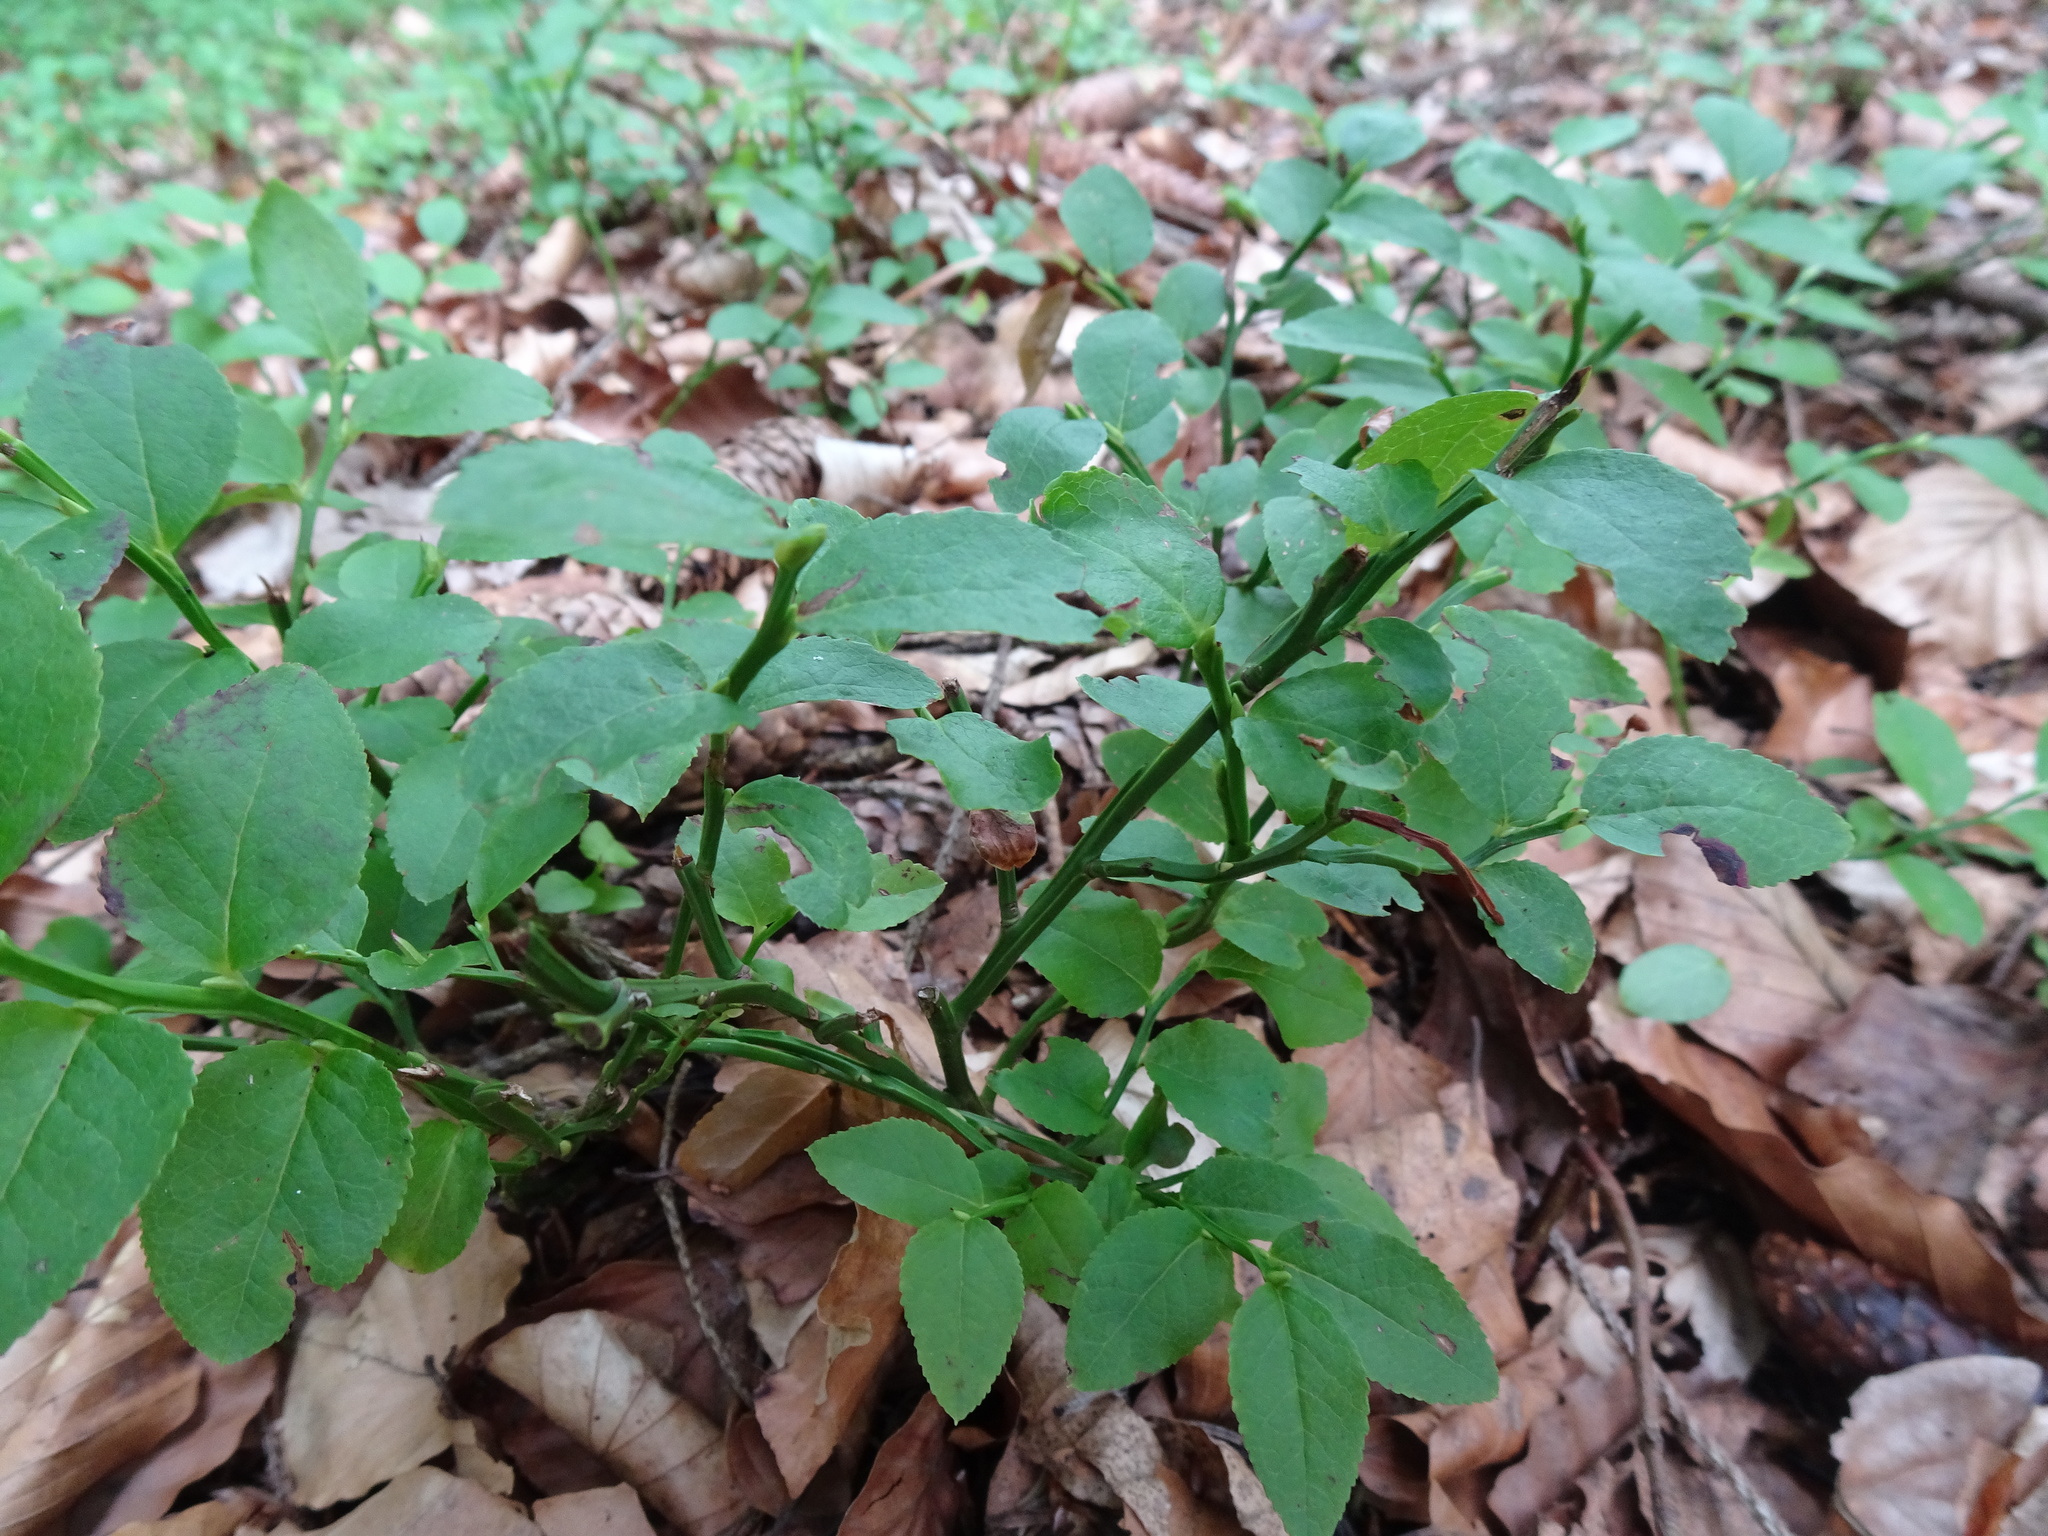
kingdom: Plantae
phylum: Tracheophyta
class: Magnoliopsida
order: Ericales
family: Ericaceae
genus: Vaccinium
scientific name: Vaccinium myrtillus
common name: Bilberry
